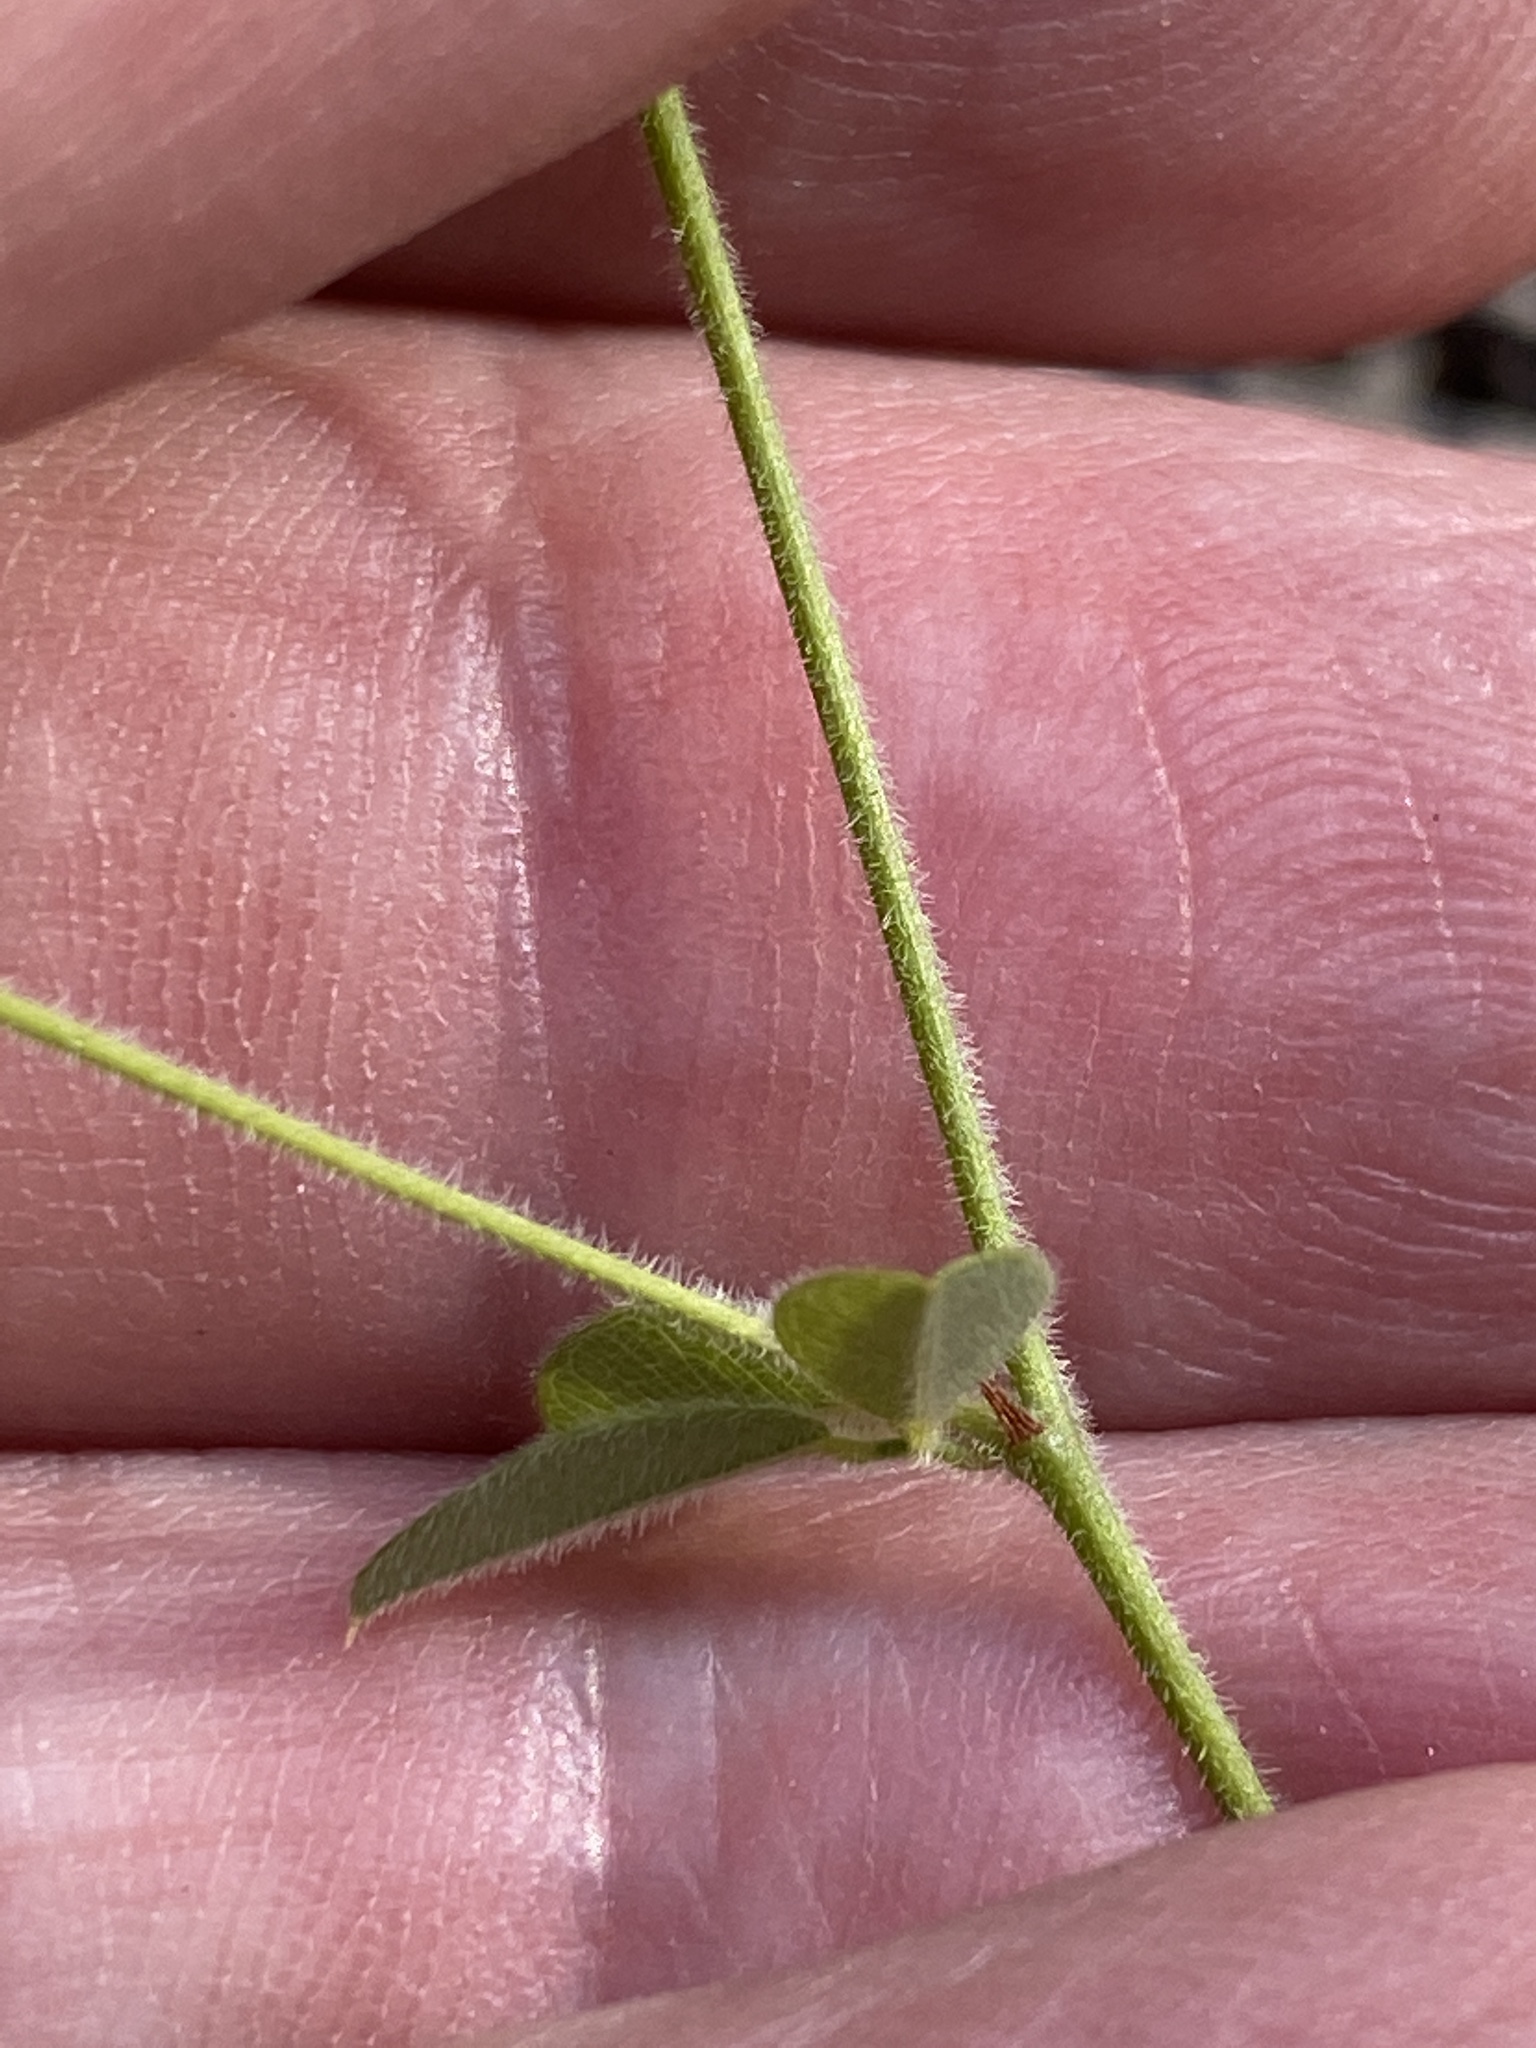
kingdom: Plantae
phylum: Tracheophyta
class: Magnoliopsida
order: Fabales
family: Fabaceae
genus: Lespedeza
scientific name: Lespedeza procumbens
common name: Downy trailing bush-clover
